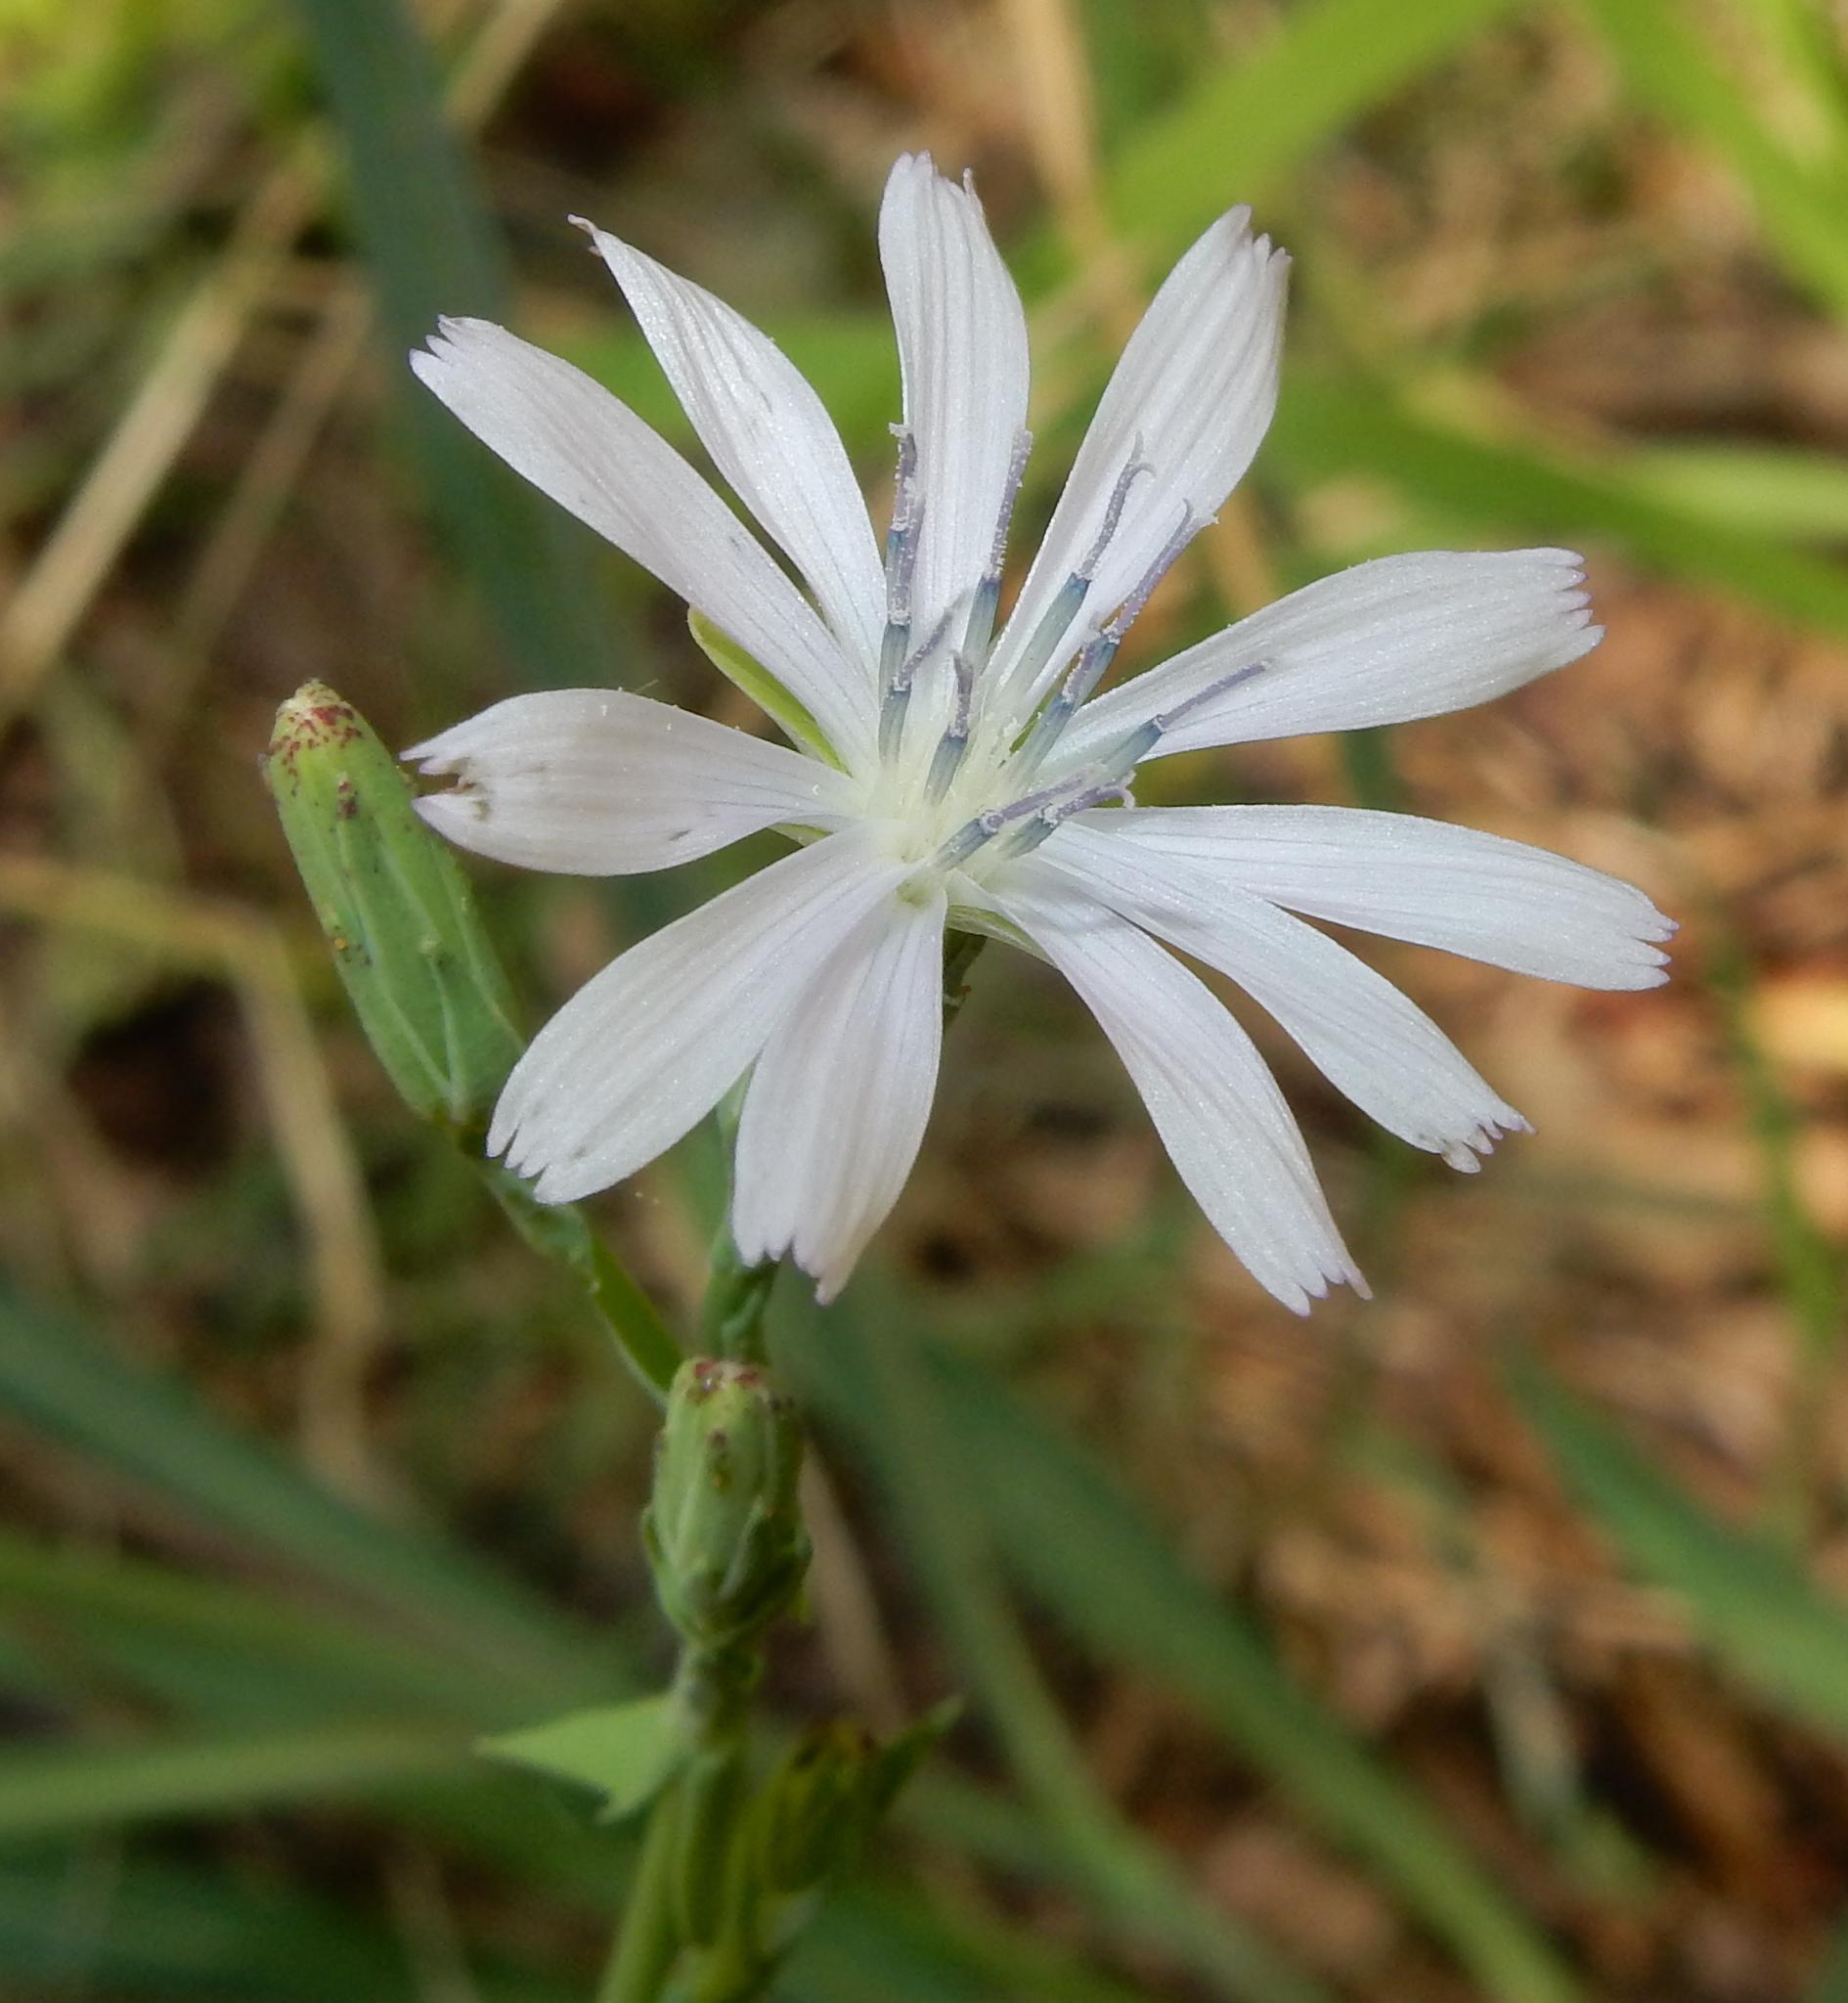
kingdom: Plantae
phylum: Tracheophyta
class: Magnoliopsida
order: Asterales
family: Asteraceae
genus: Lactuca
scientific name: Lactuca inermis
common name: Wild lettuce
